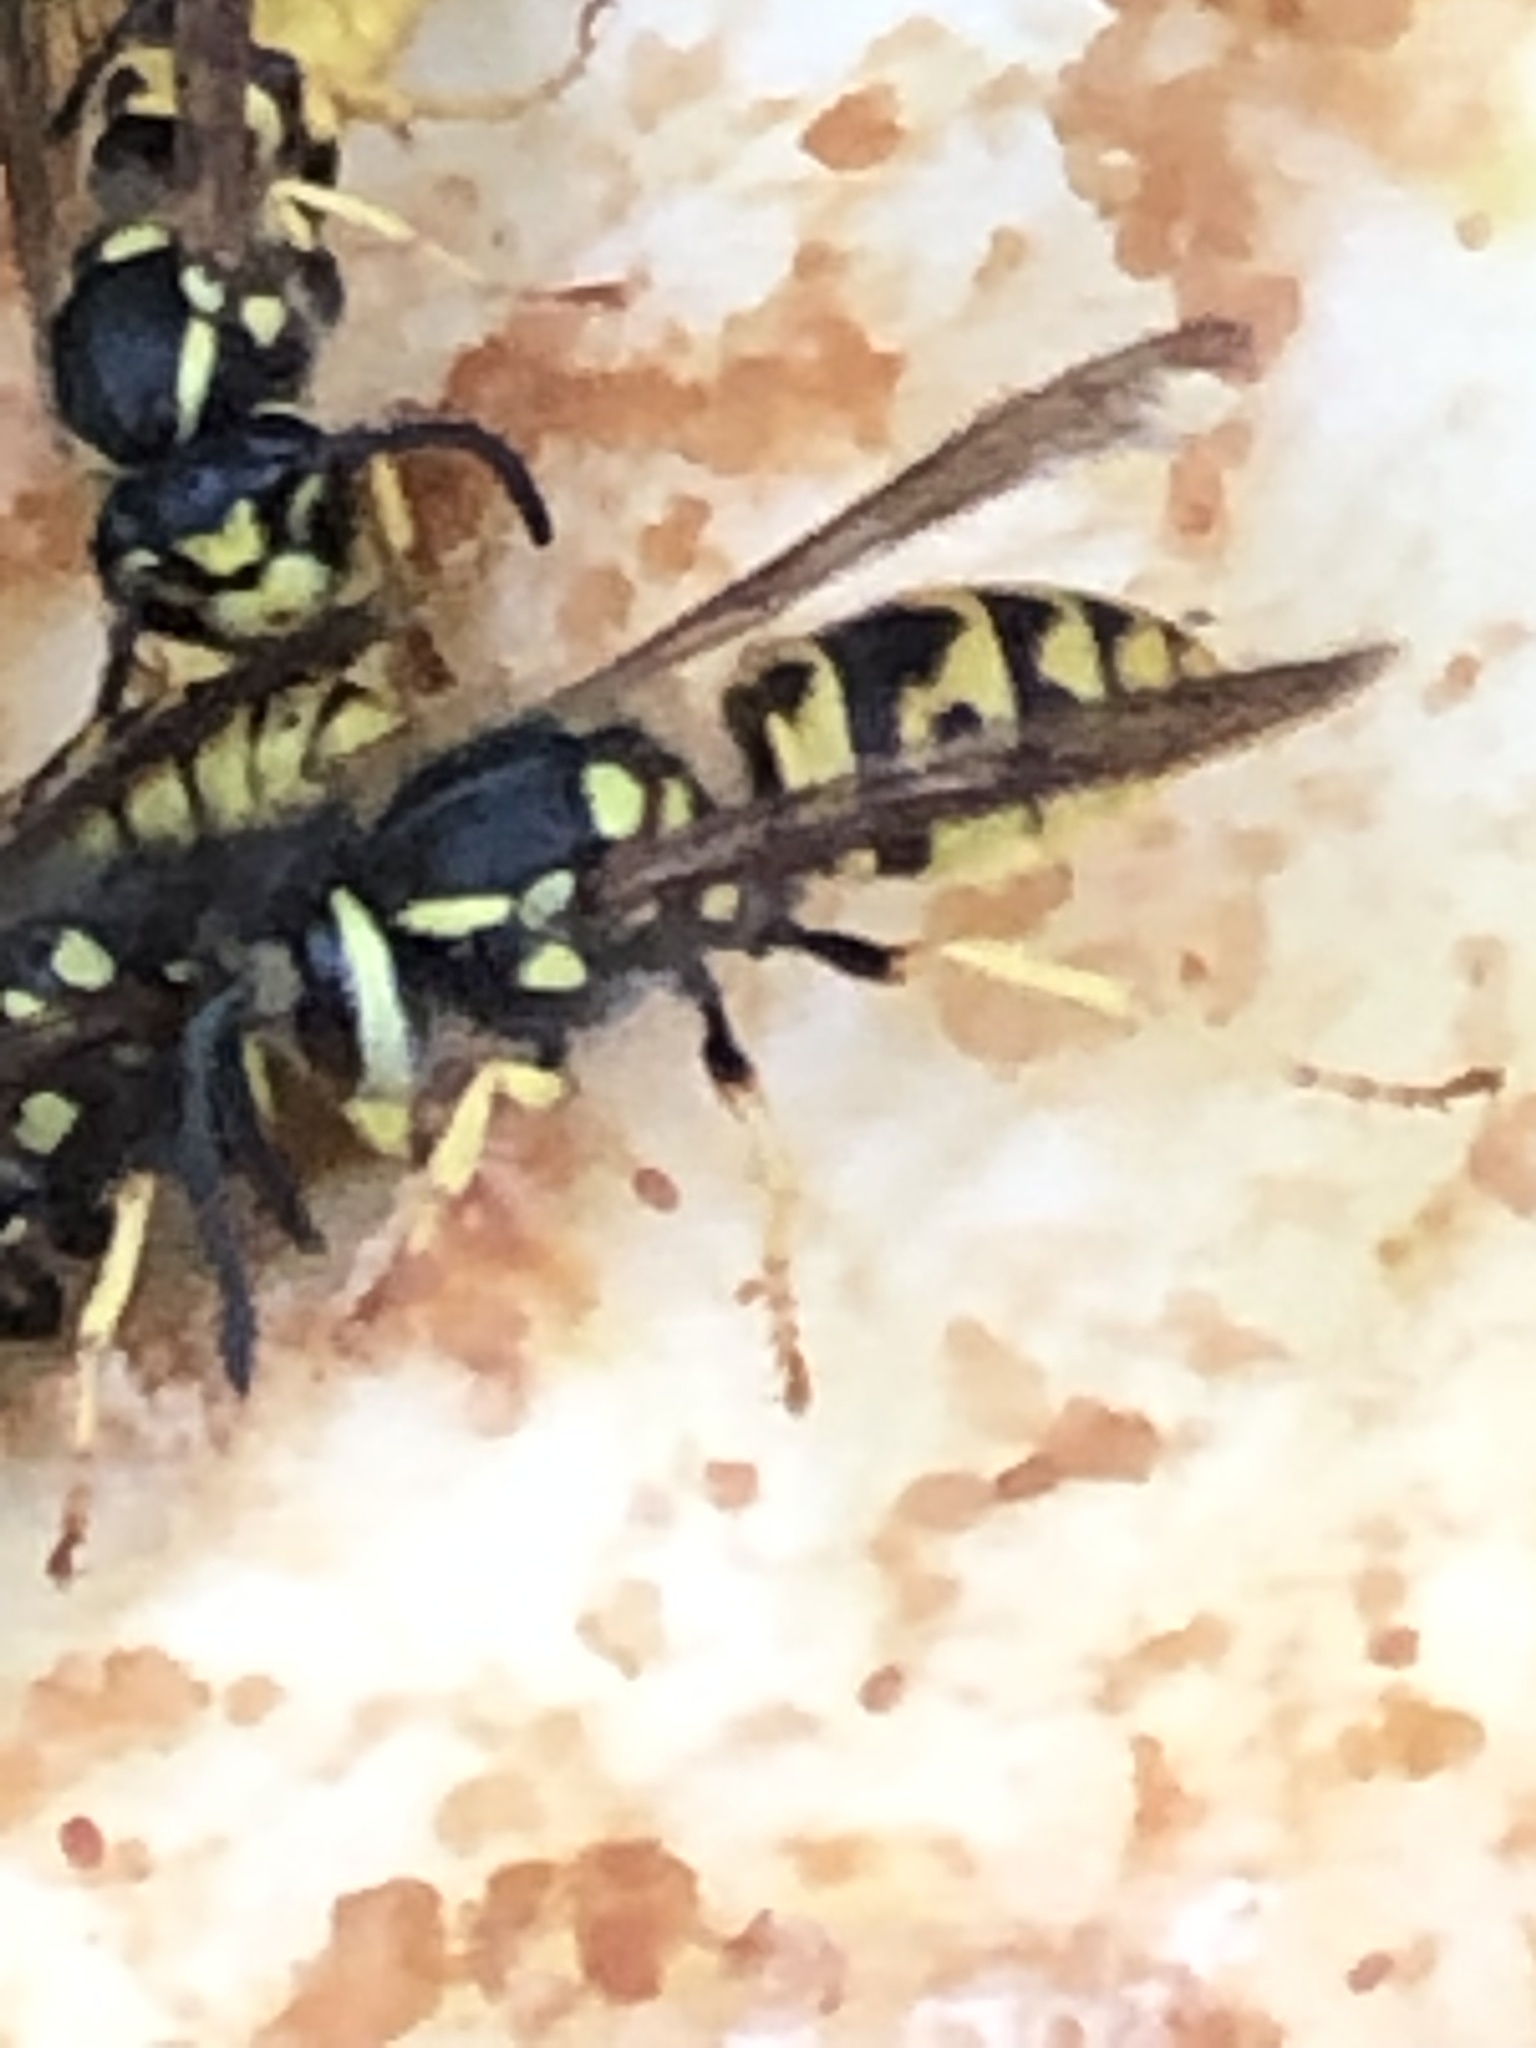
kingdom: Animalia
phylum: Arthropoda
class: Insecta
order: Hymenoptera
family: Vespidae
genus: Vespula
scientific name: Vespula germanica
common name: German wasp
